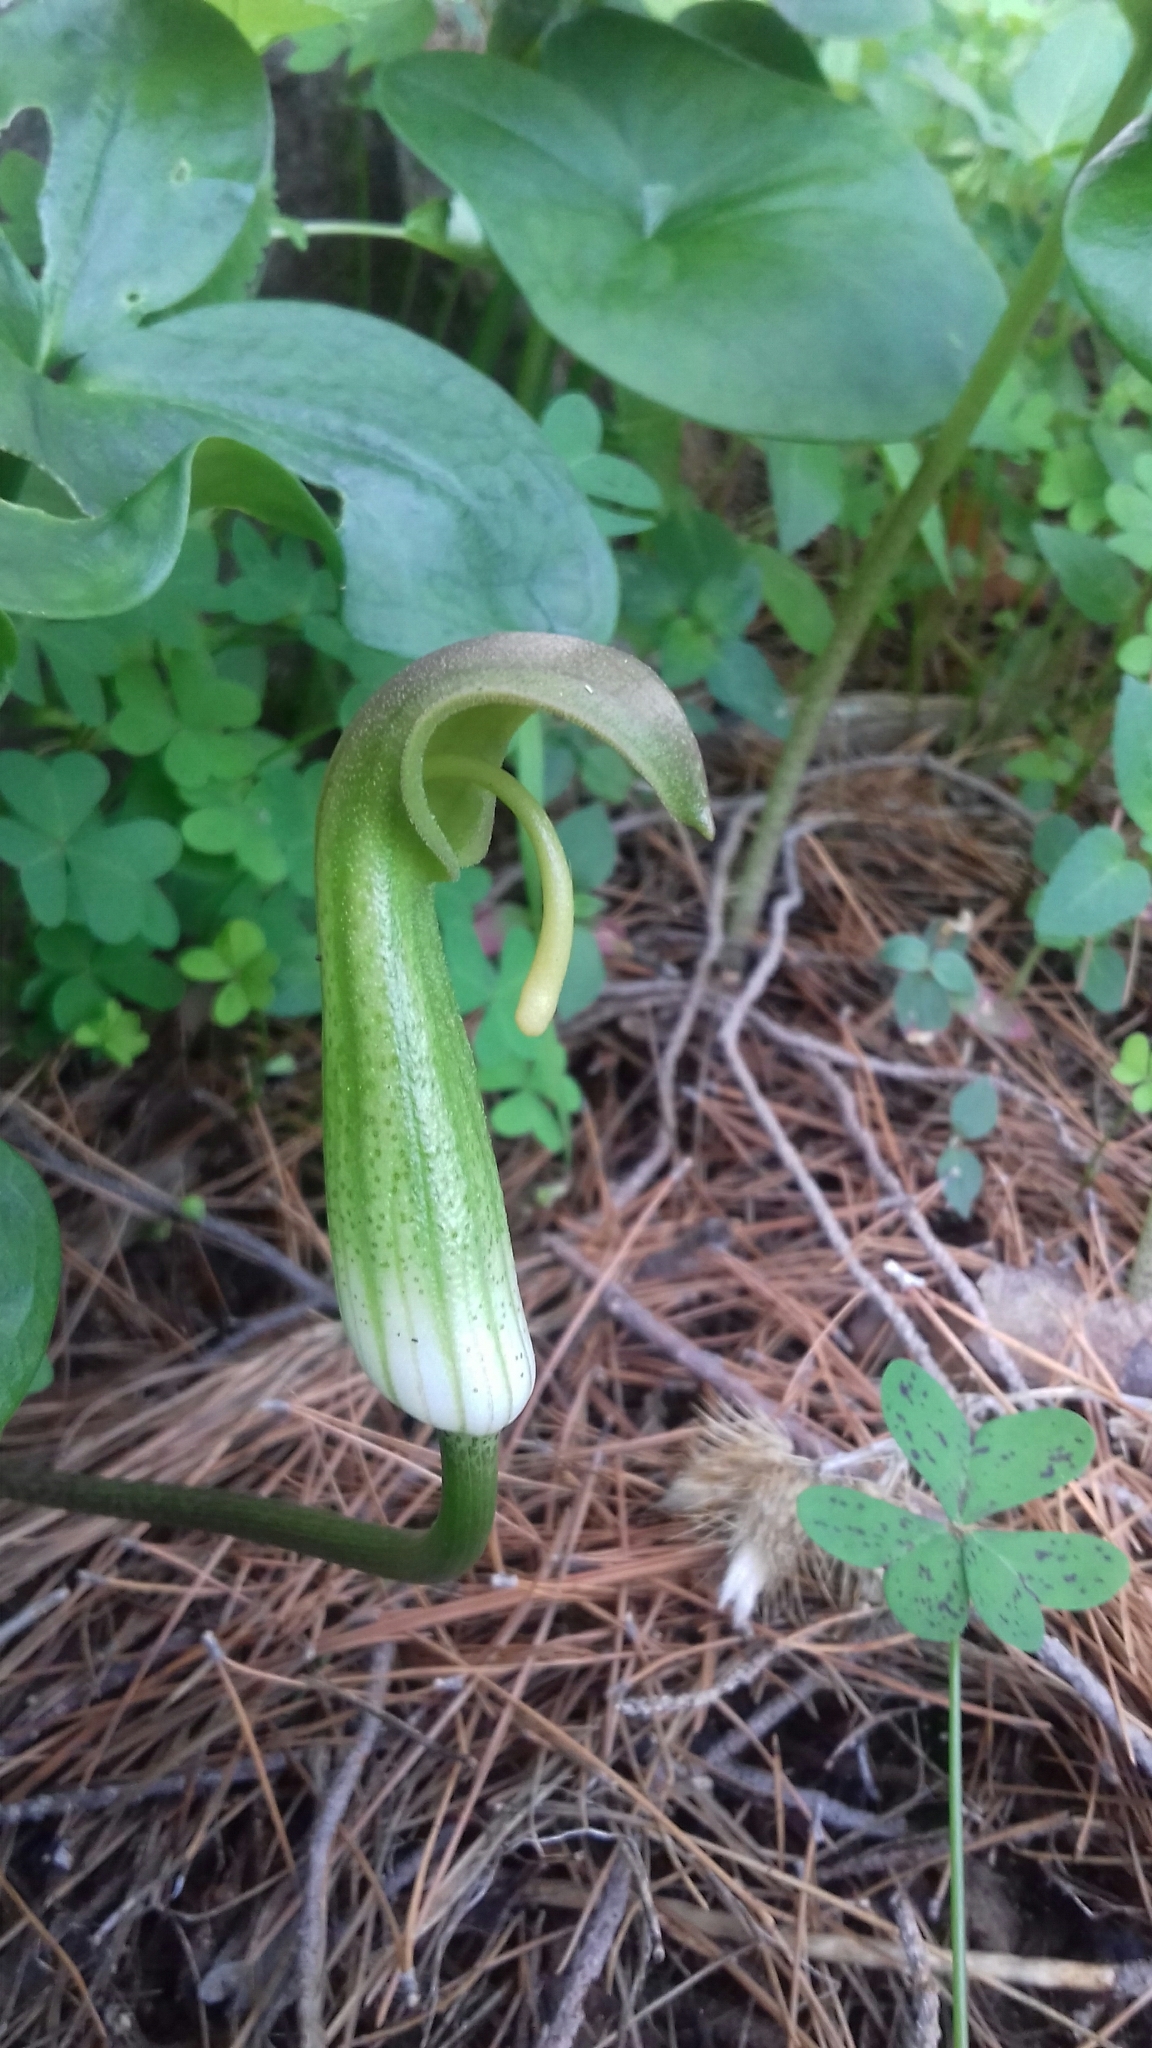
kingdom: Plantae
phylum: Tracheophyta
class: Liliopsida
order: Alismatales
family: Araceae
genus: Arisarum
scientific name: Arisarum vulgare
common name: Common arisarum
